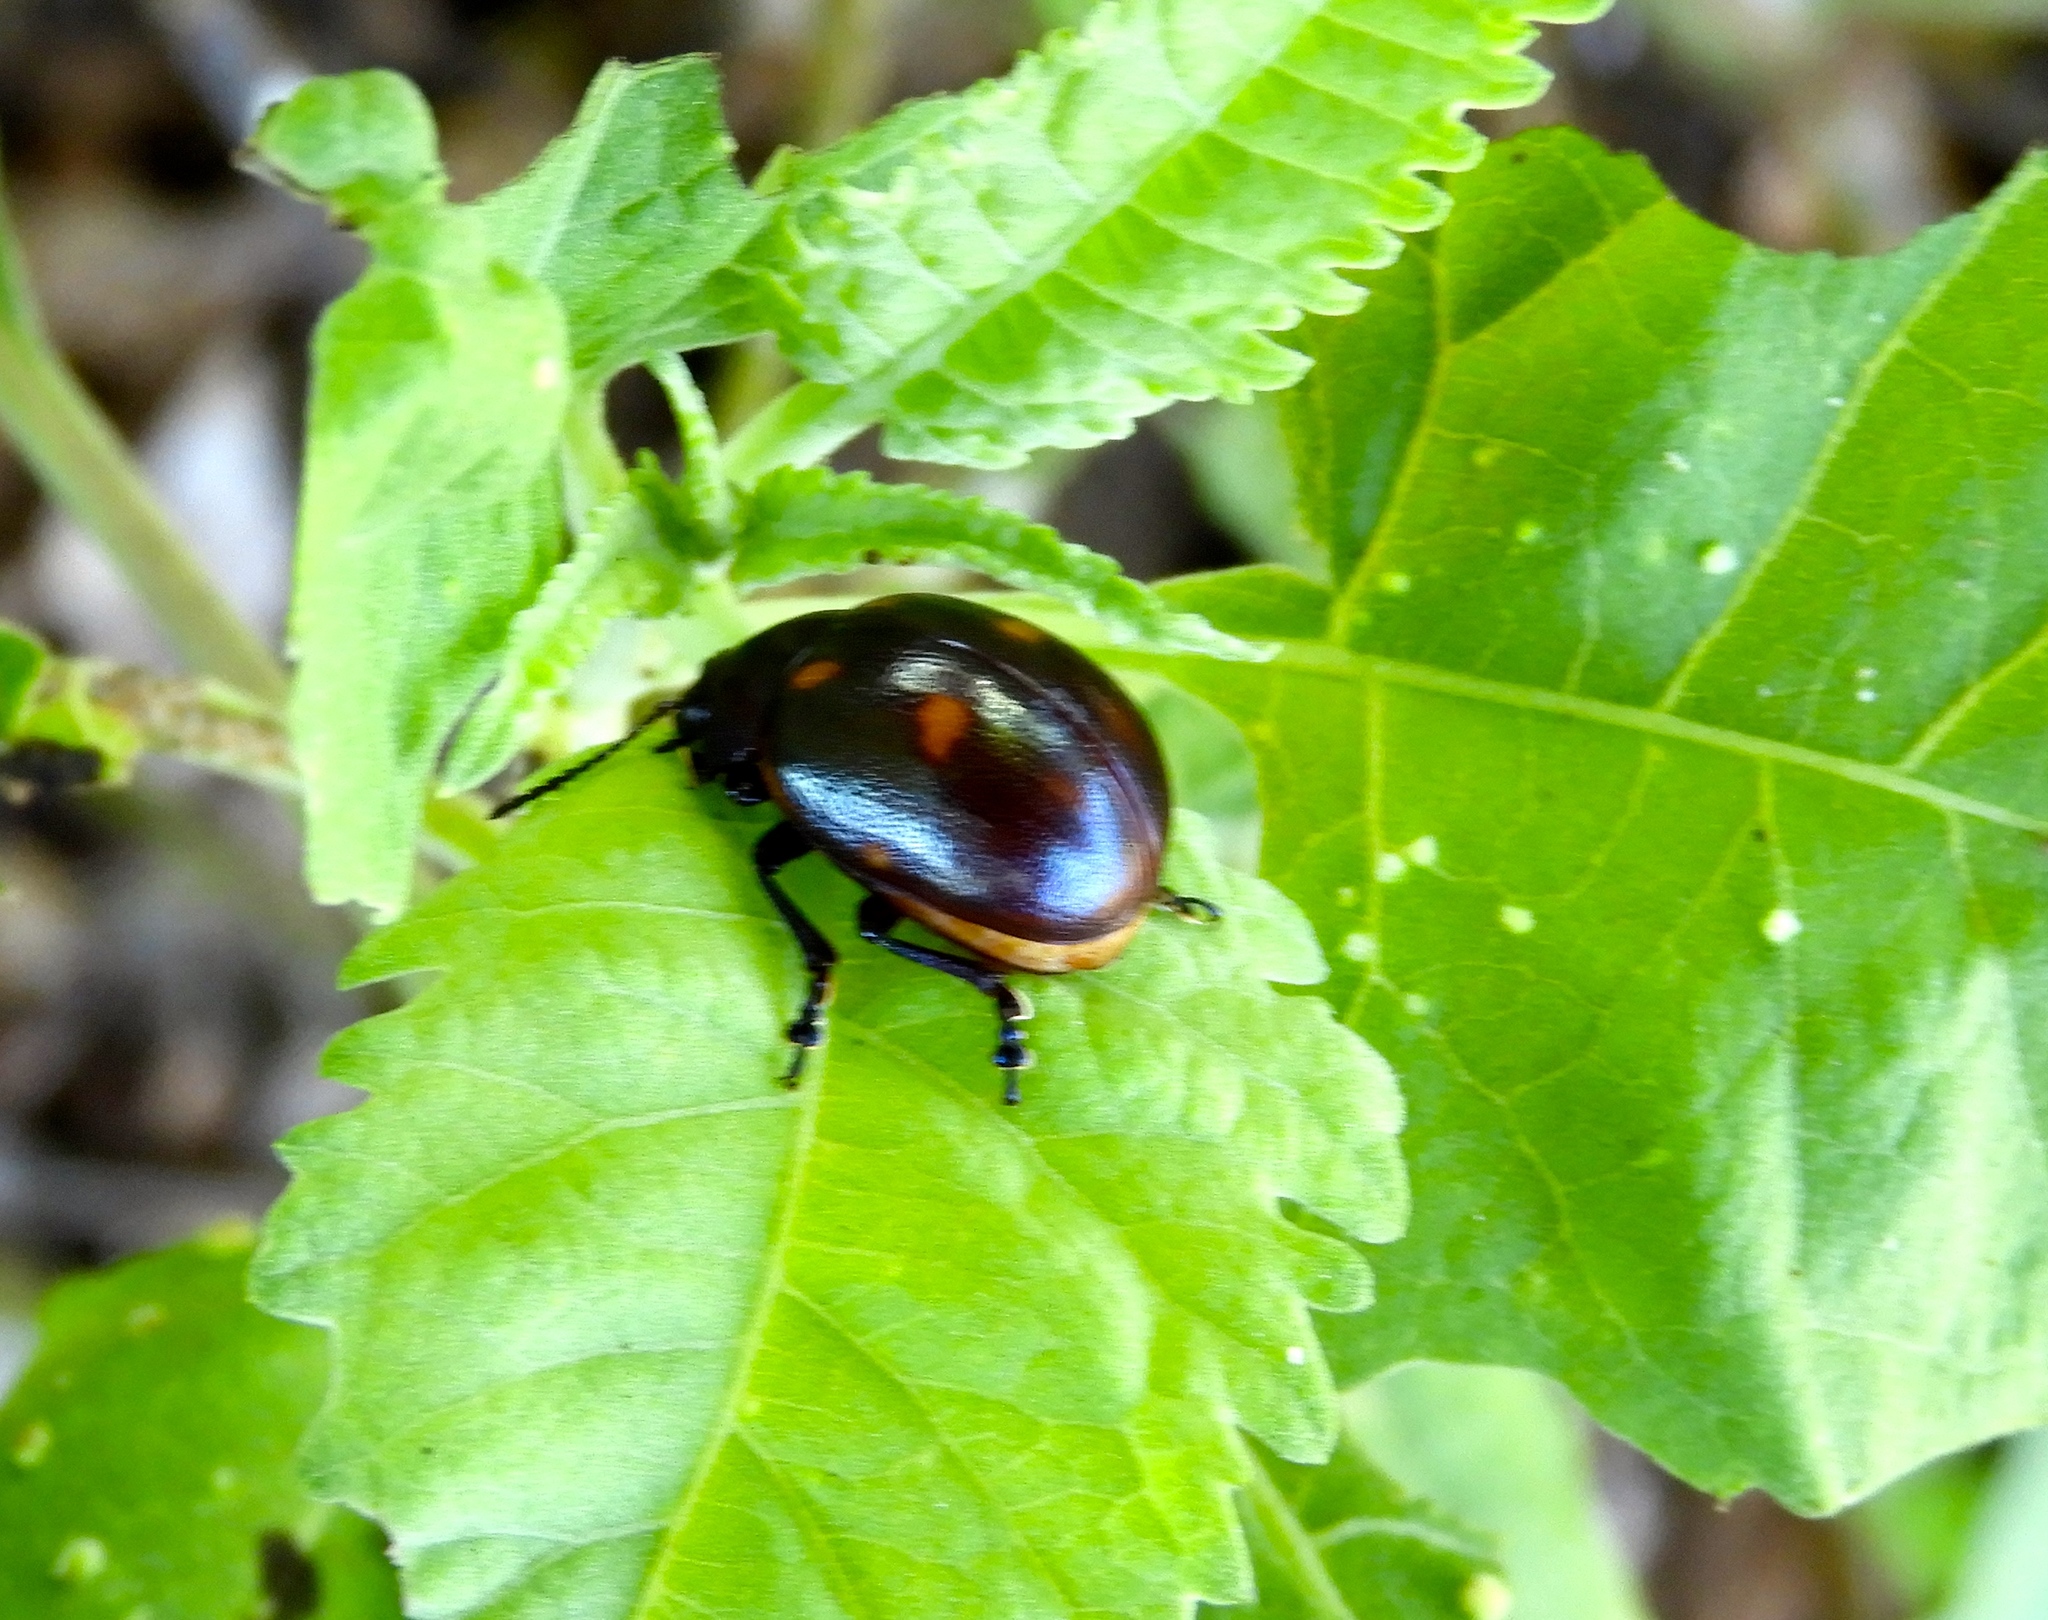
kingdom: Animalia
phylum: Arthropoda
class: Insecta
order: Coleoptera
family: Chrysomelidae
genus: Leptinotarsa
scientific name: Leptinotarsa behrensi
